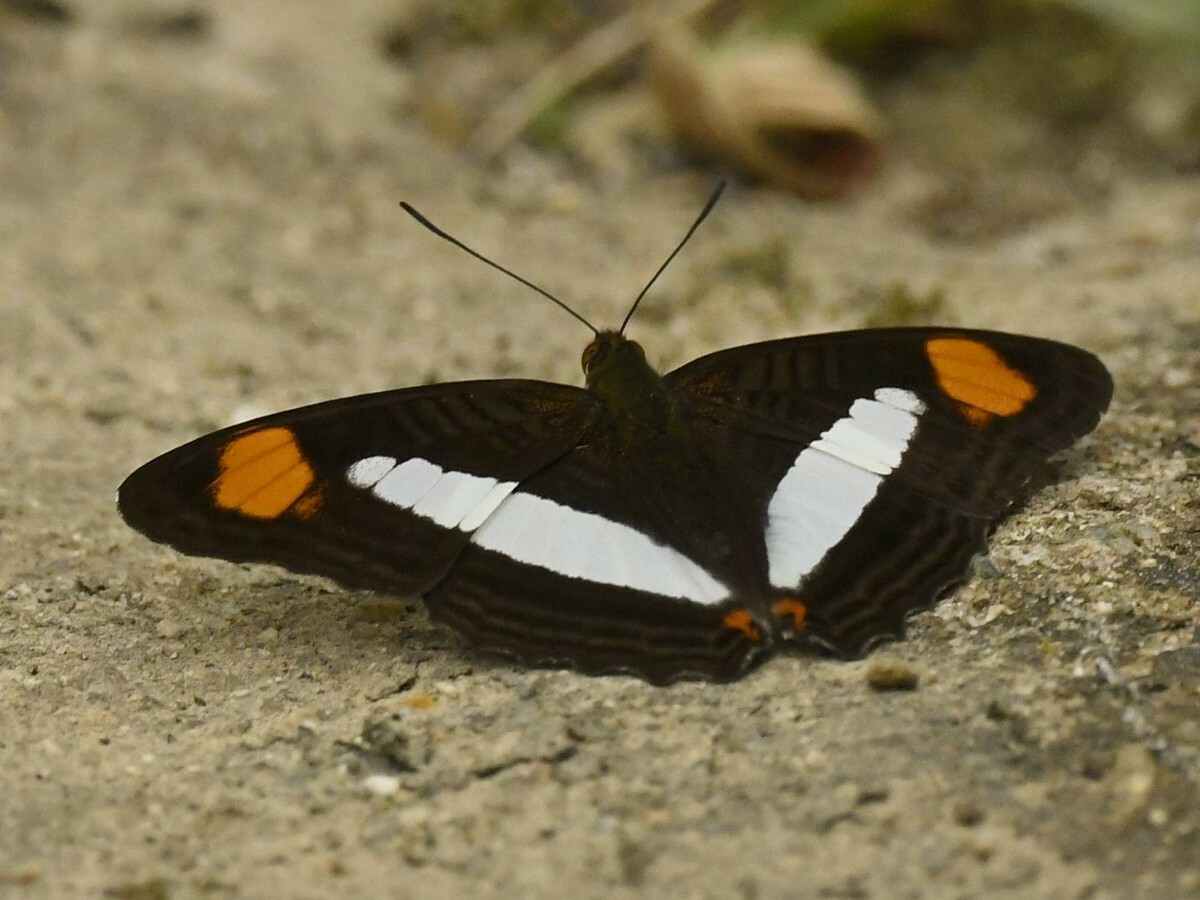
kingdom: Animalia
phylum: Arthropoda
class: Insecta
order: Lepidoptera
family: Nymphalidae
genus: Limenitis
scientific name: Limenitis thessalia
